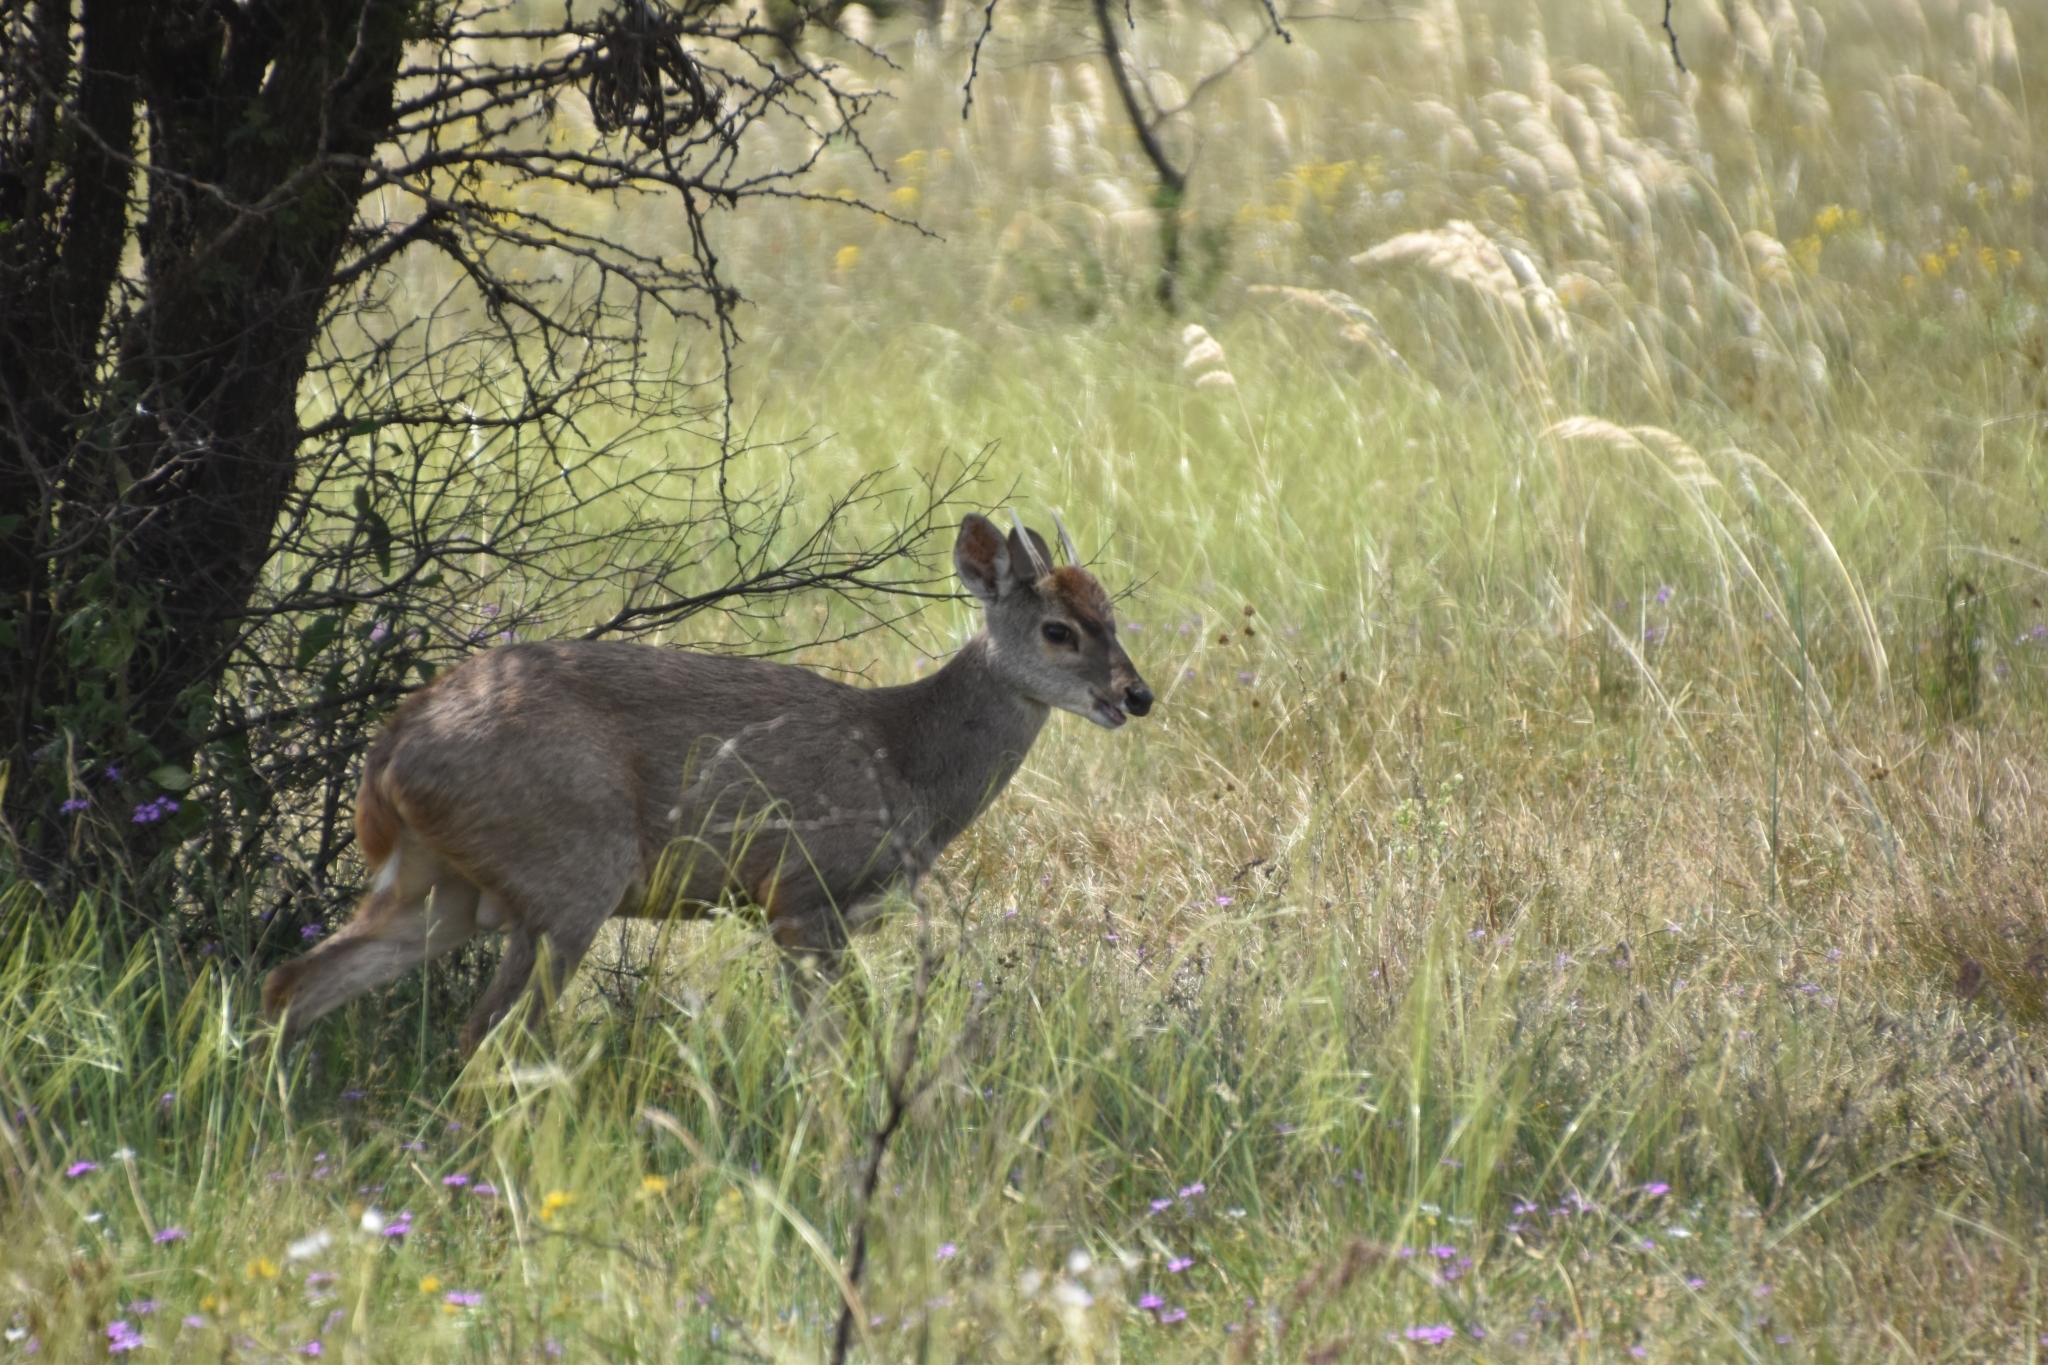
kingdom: Animalia
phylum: Chordata
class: Mammalia
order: Artiodactyla
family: Cervidae
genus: Mazama
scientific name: Mazama gouazoubira
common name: Gray brocket
